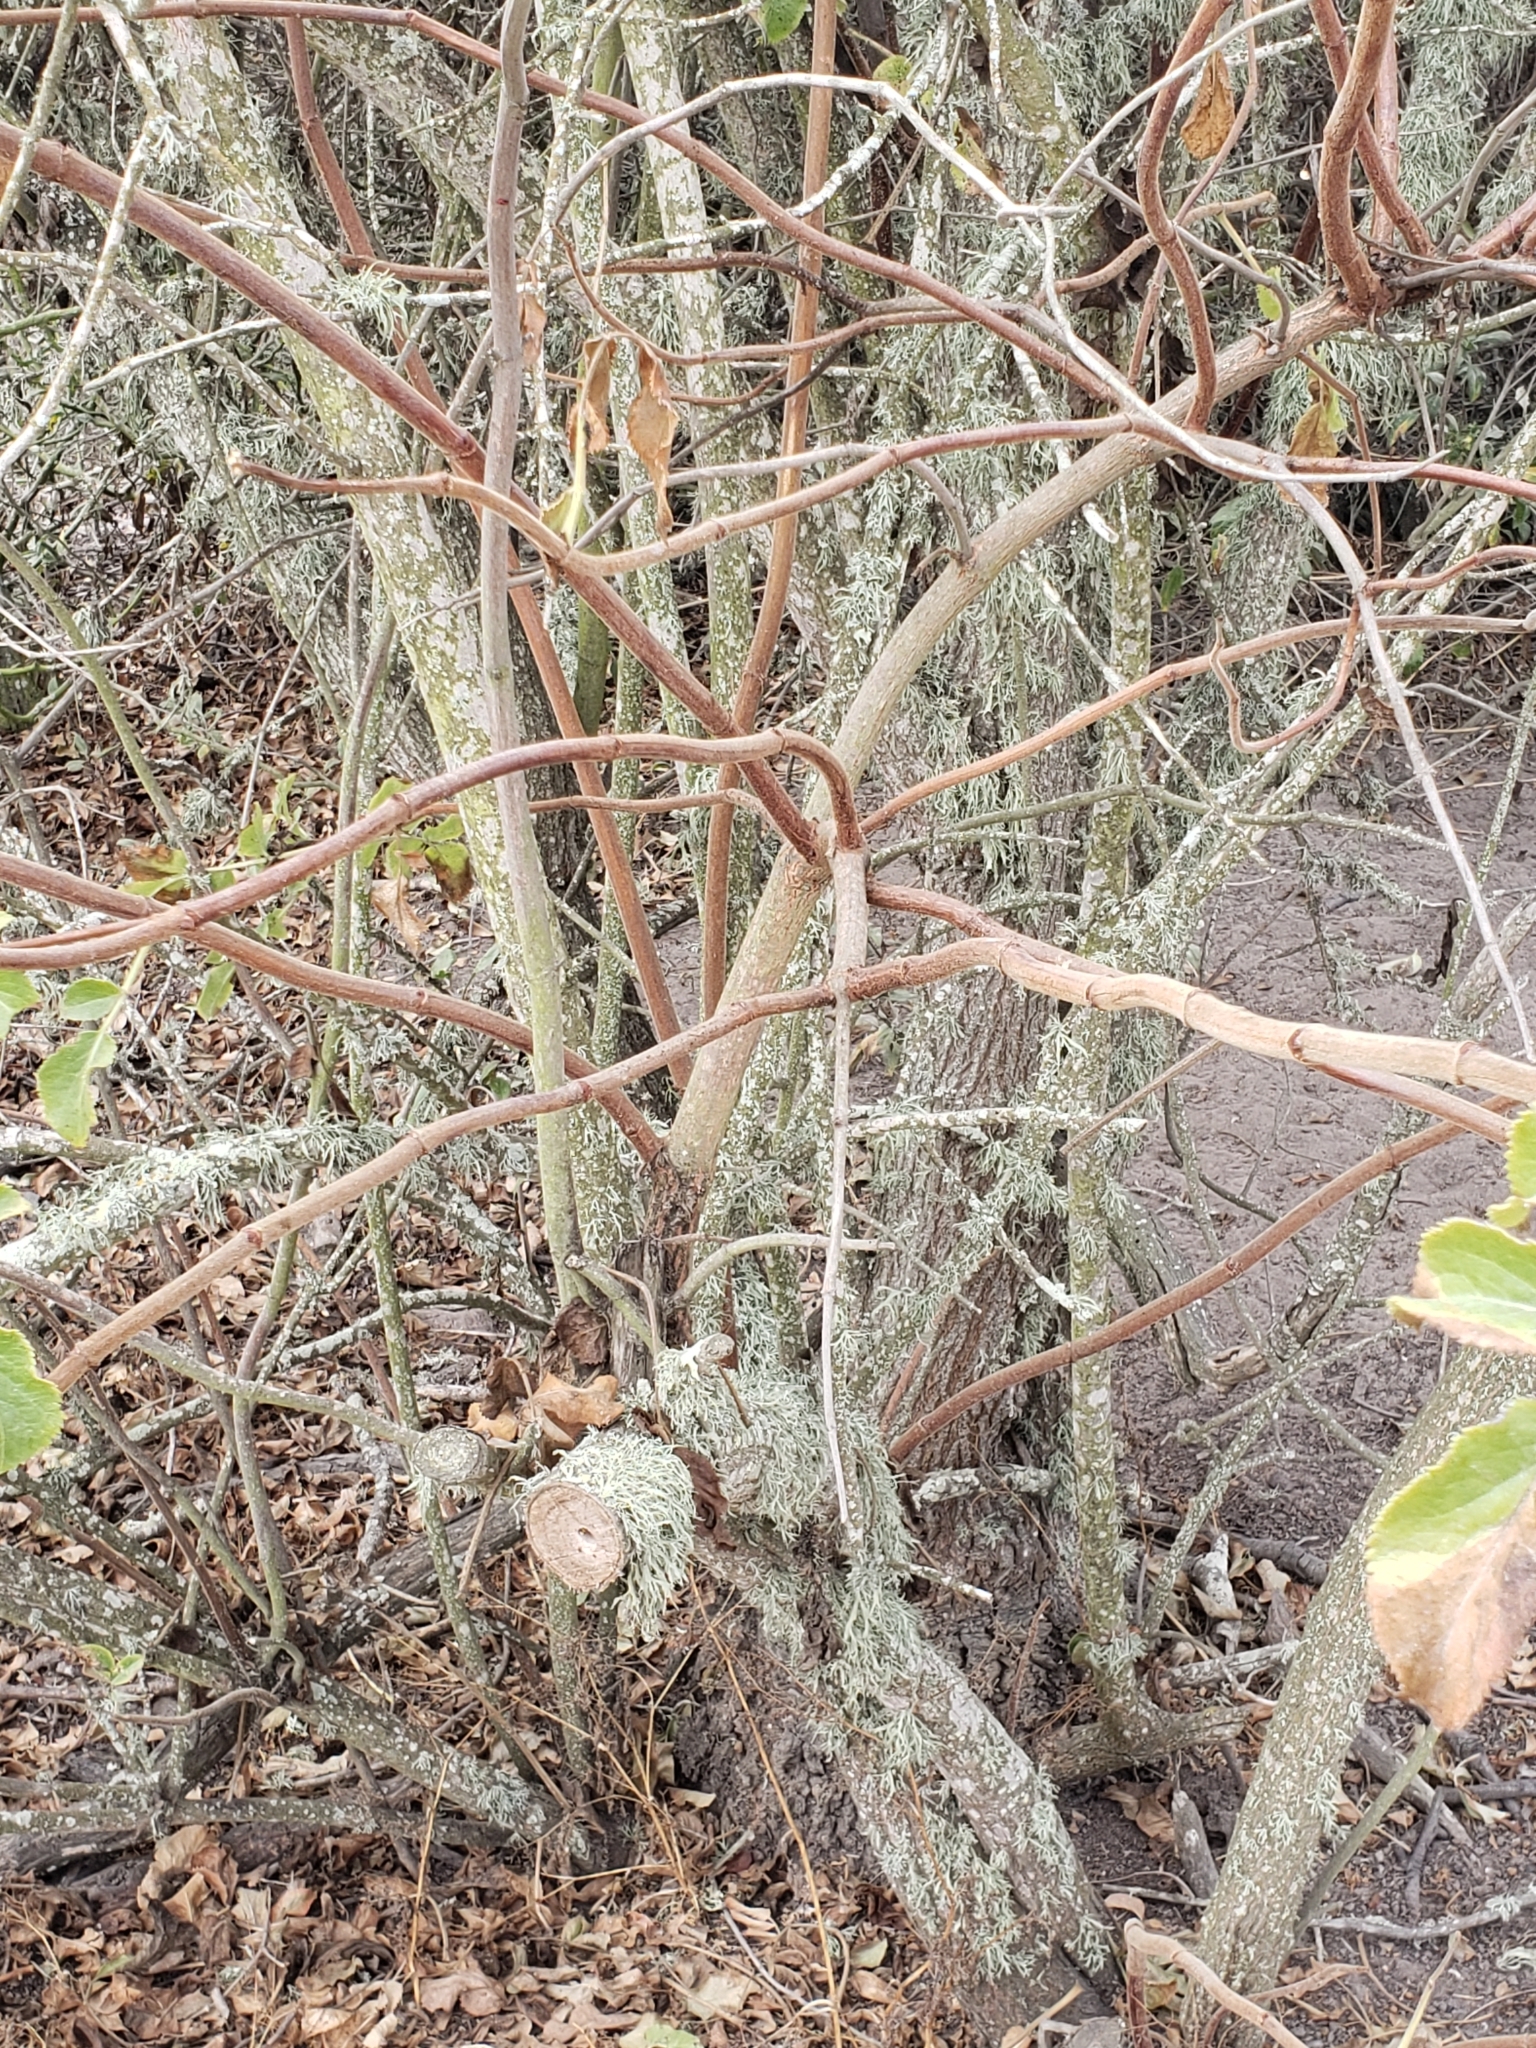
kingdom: Plantae
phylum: Tracheophyta
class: Magnoliopsida
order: Dipsacales
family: Viburnaceae
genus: Sambucus
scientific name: Sambucus cerulea
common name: Blue elder
